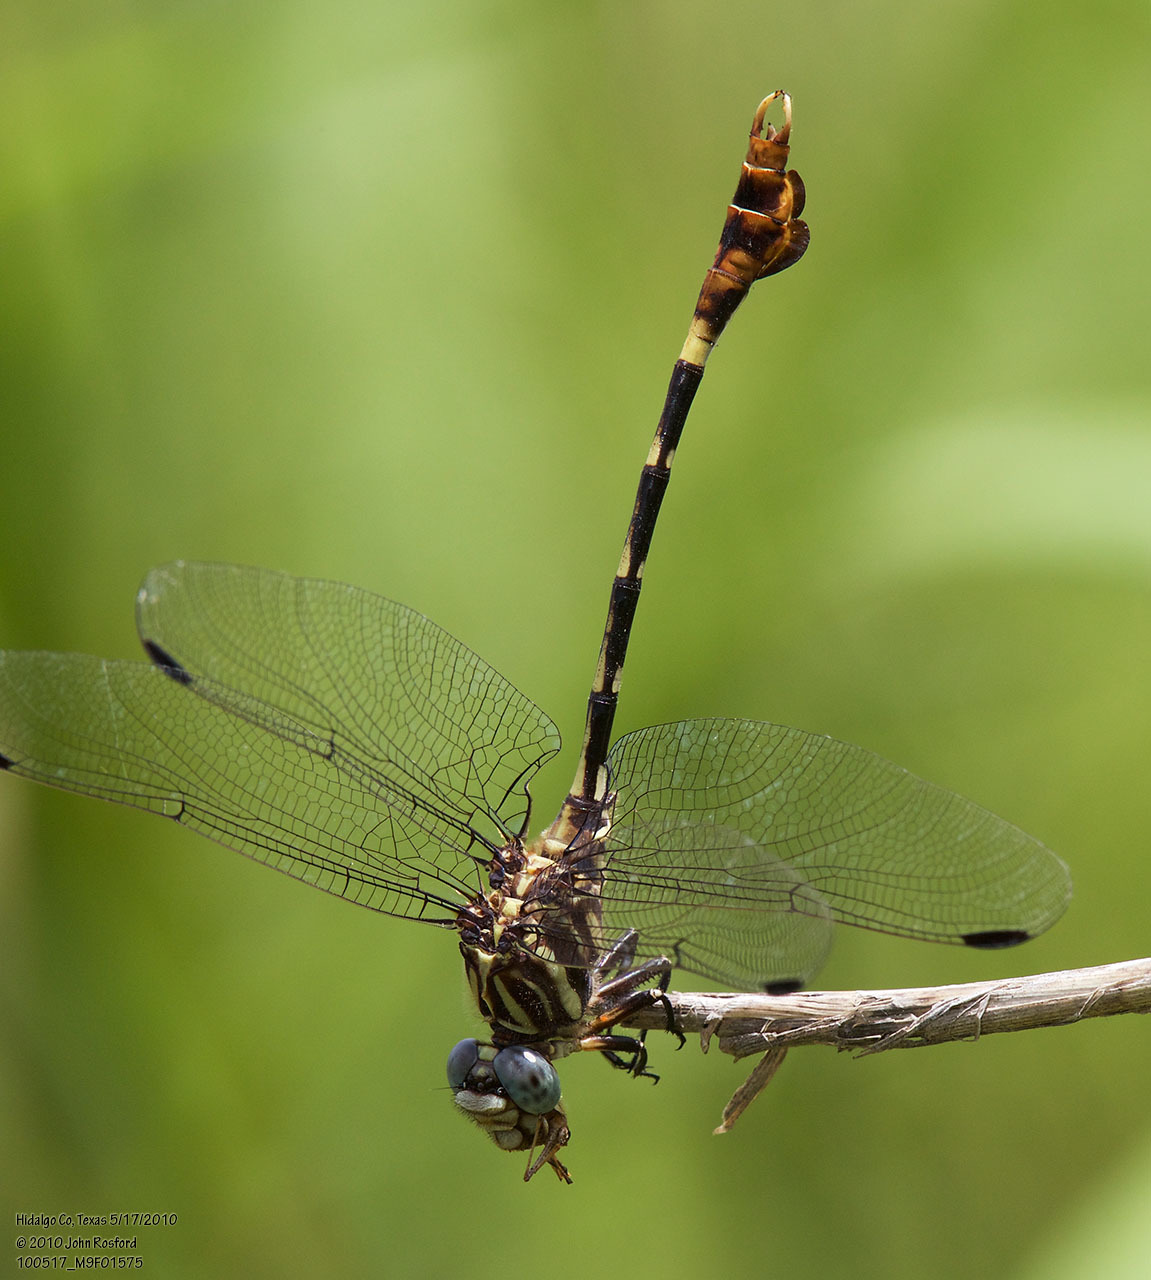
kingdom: Animalia
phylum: Arthropoda
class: Insecta
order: Odonata
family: Gomphidae
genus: Phyllogomphoides
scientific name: Phyllogomphoides albrighti
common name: Five-striped leaftail
